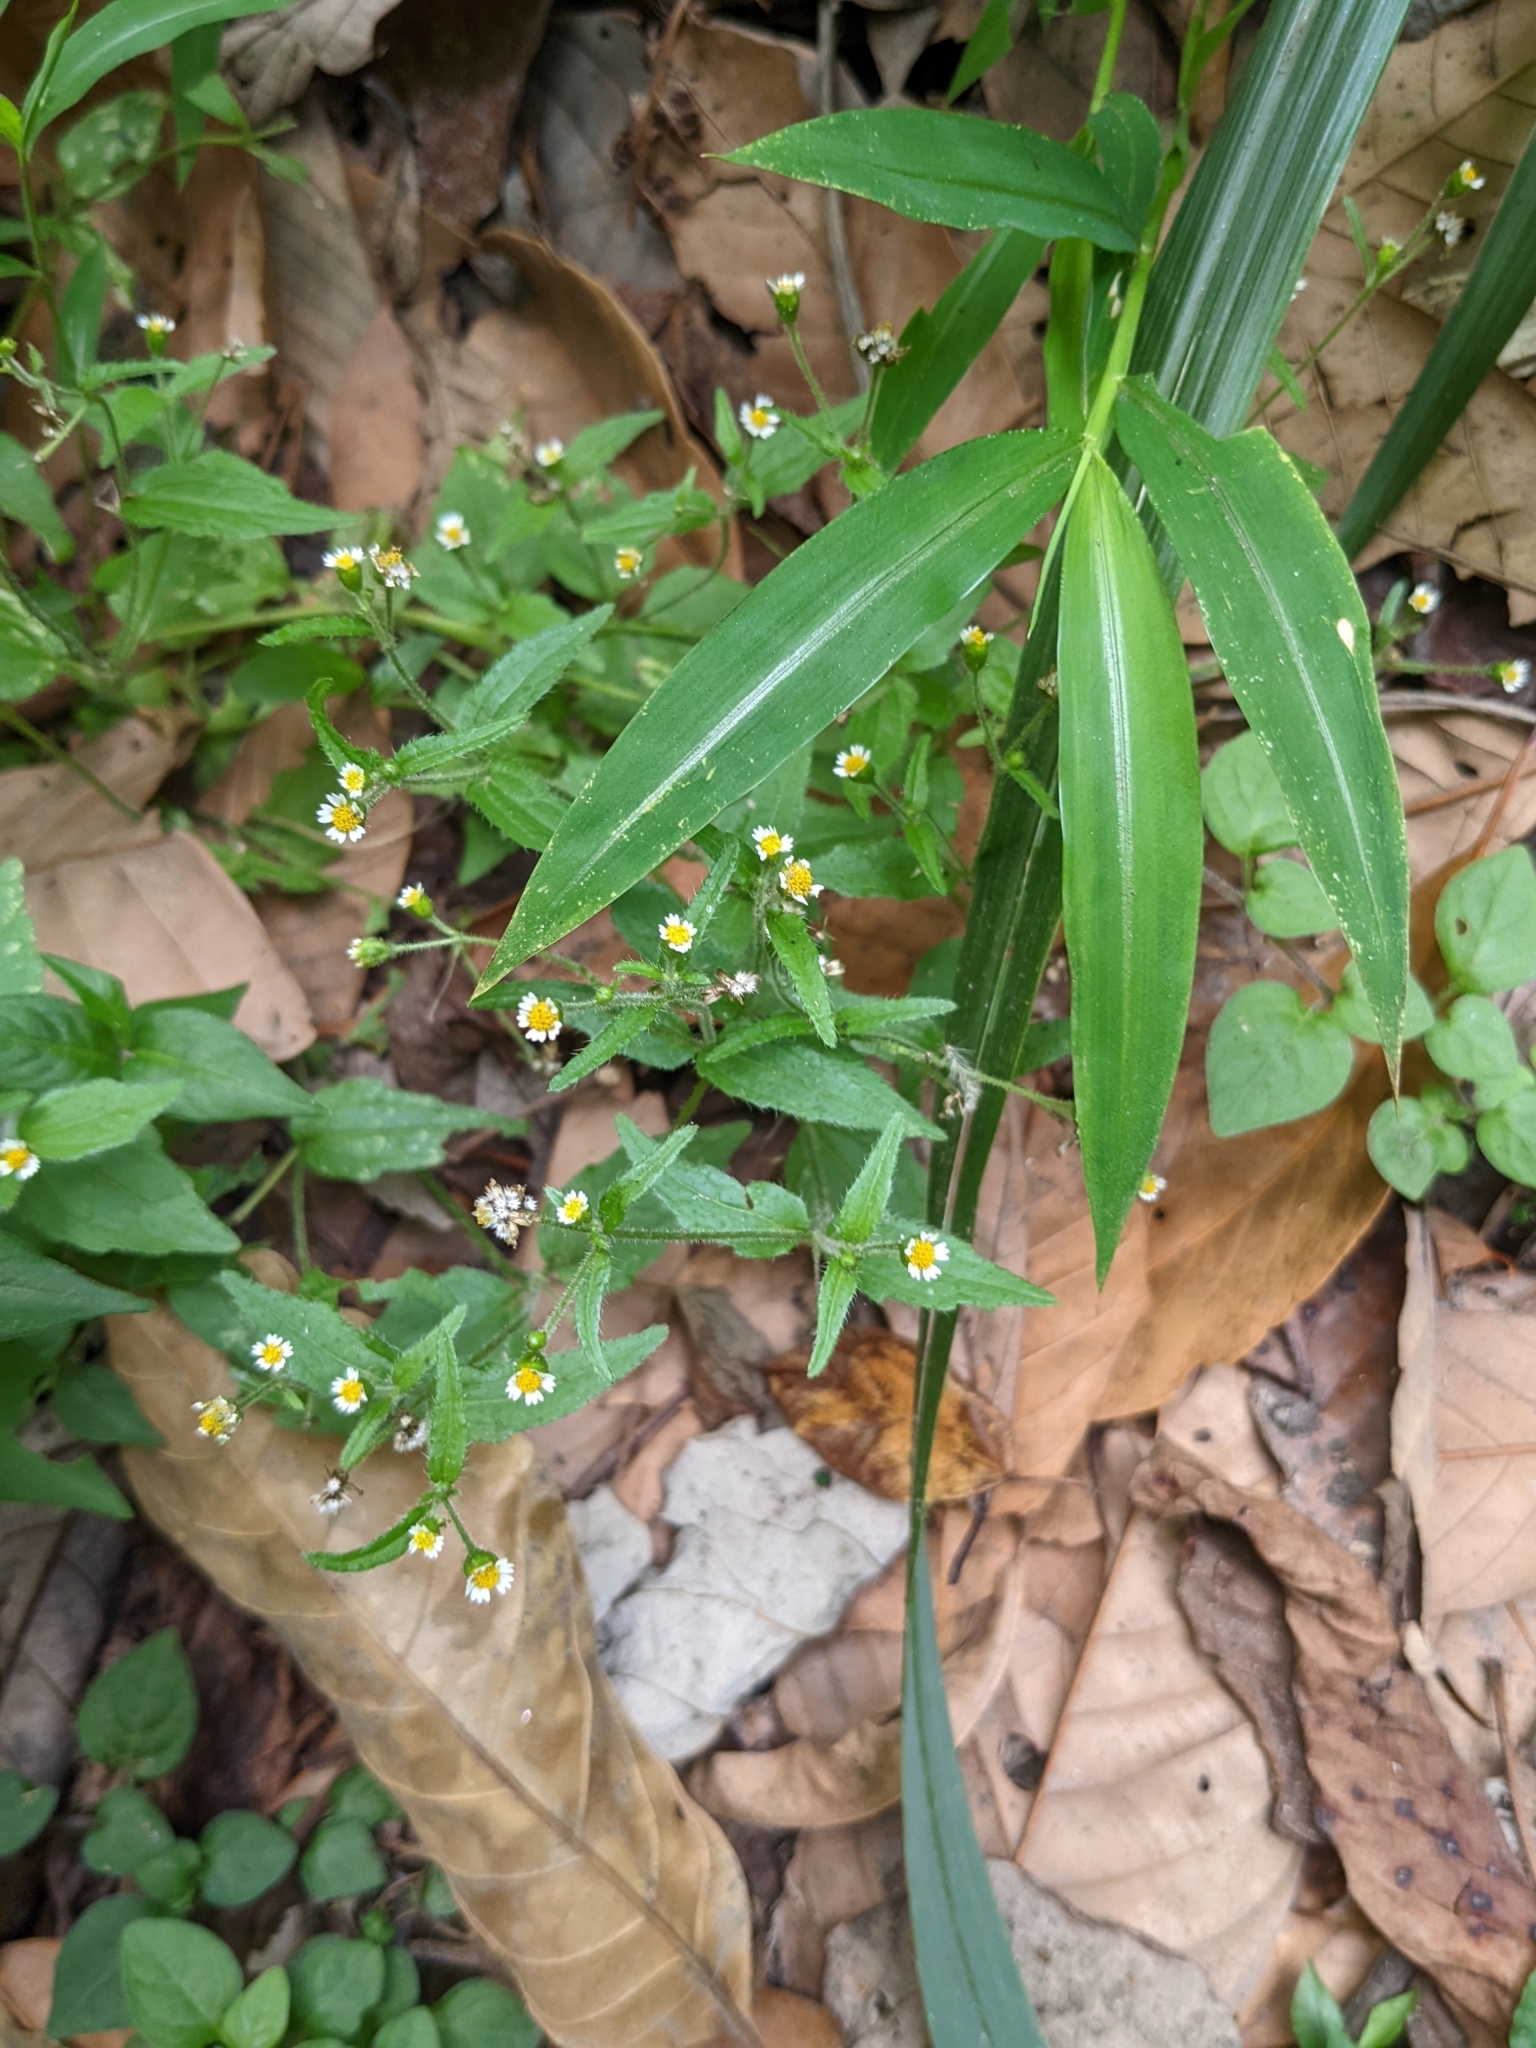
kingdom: Plantae
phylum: Tracheophyta
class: Magnoliopsida
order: Asterales
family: Asteraceae
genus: Galinsoga
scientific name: Galinsoga quadriradiata
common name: Shaggy soldier
